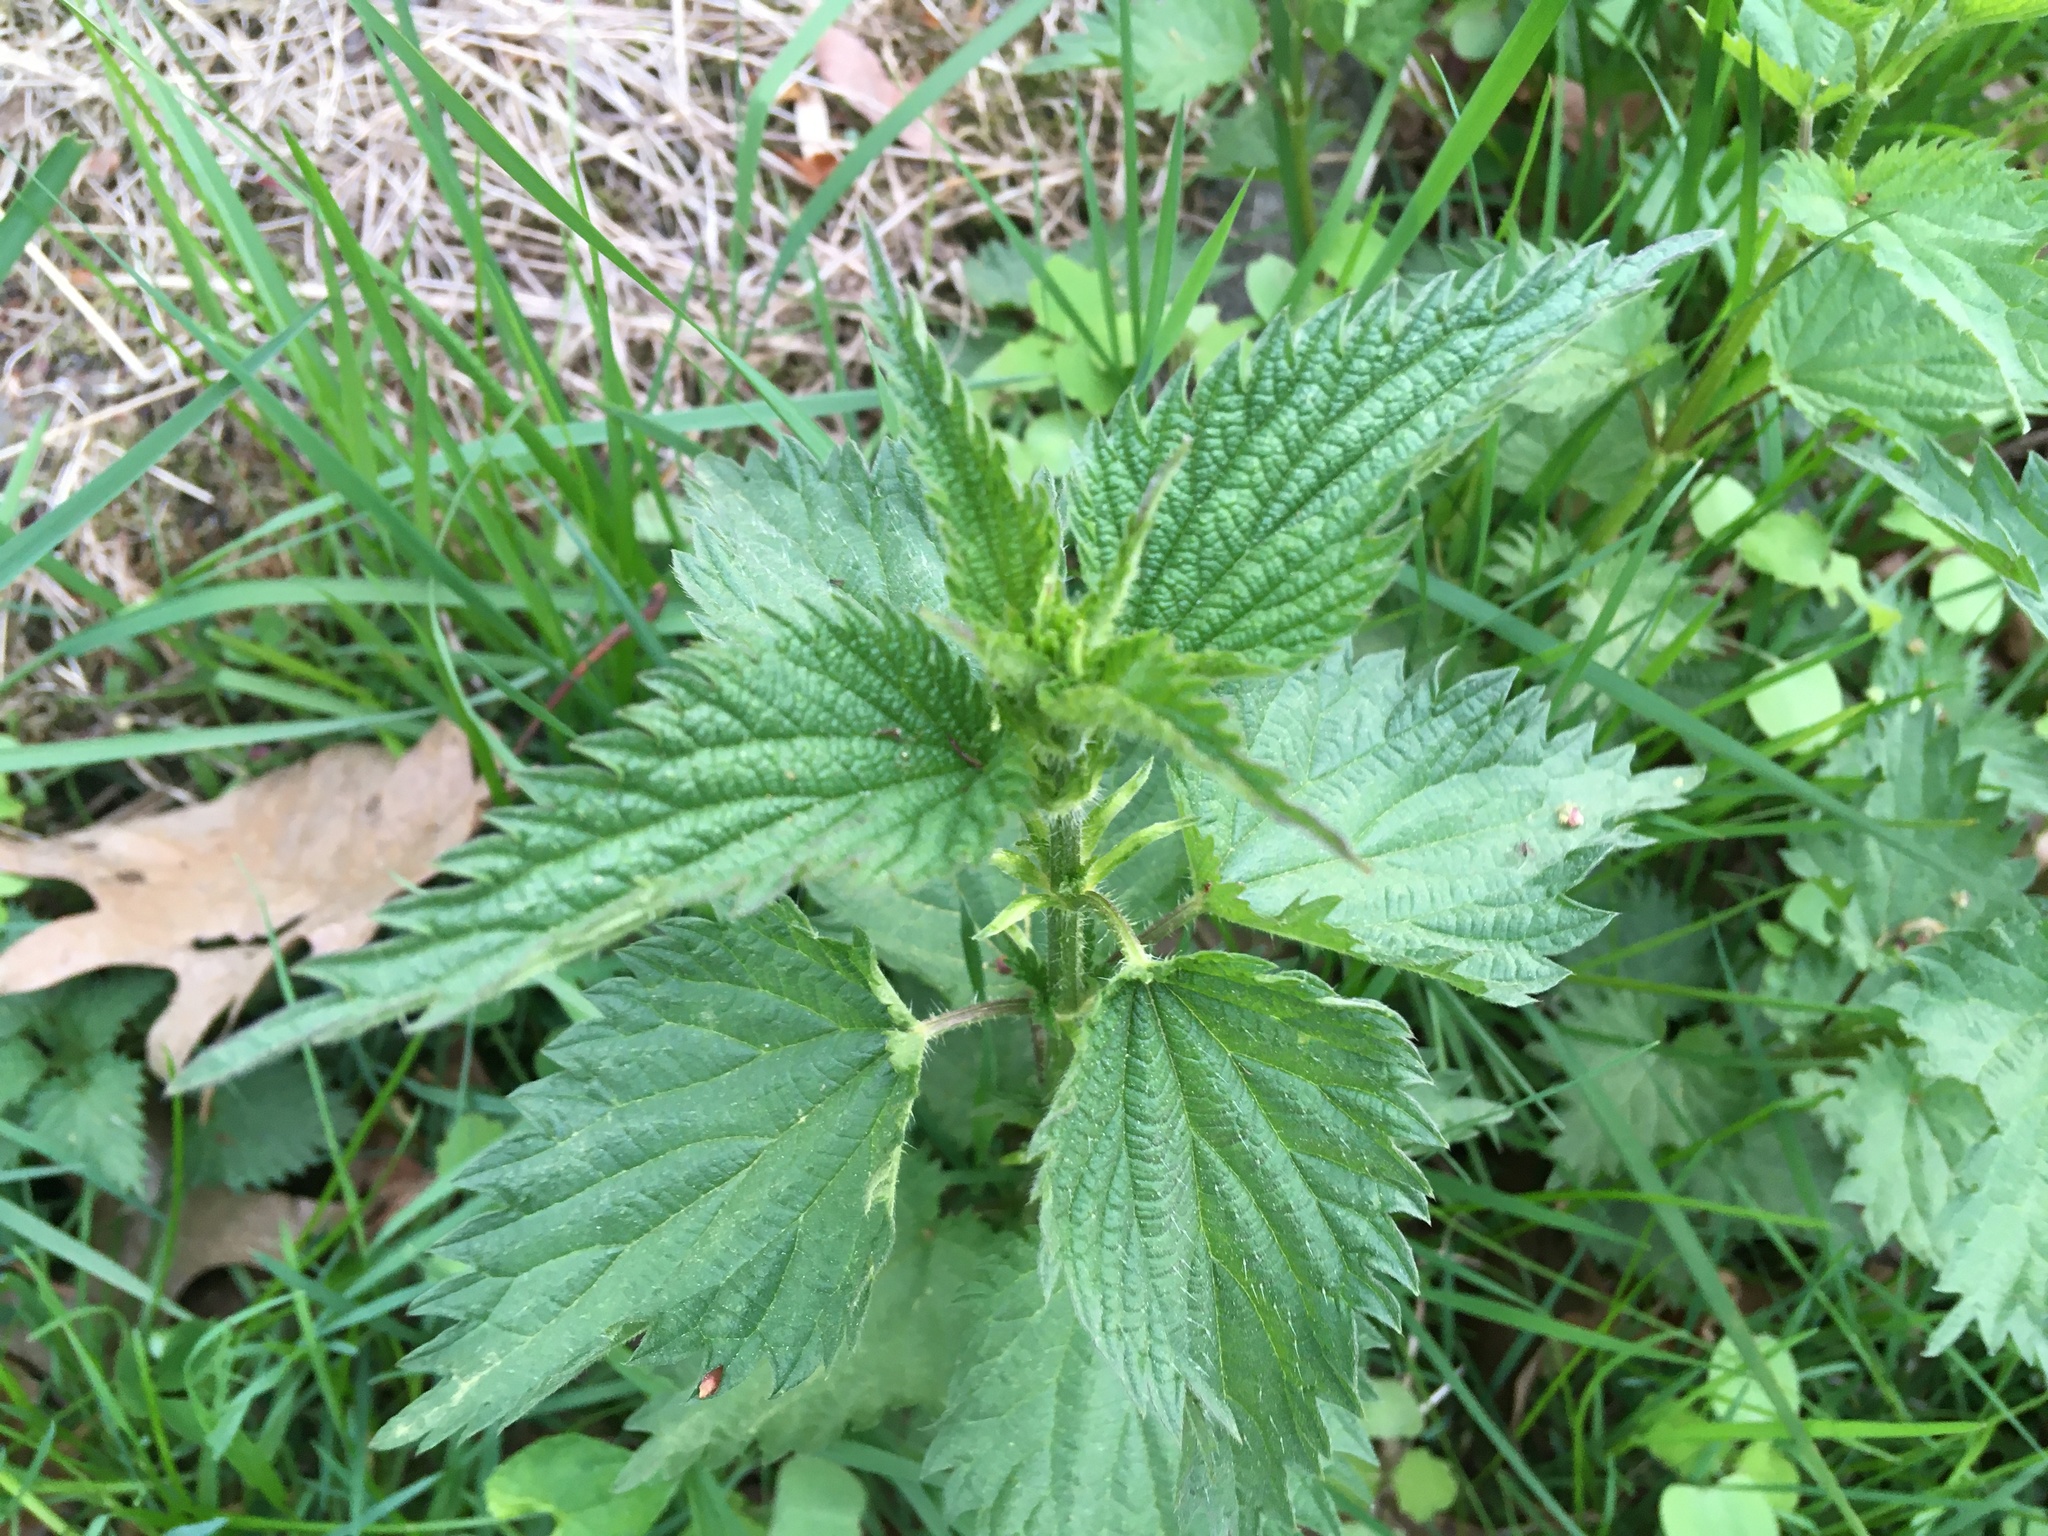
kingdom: Plantae
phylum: Tracheophyta
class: Magnoliopsida
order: Rosales
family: Urticaceae
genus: Urtica
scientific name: Urtica dioica
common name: Common nettle
